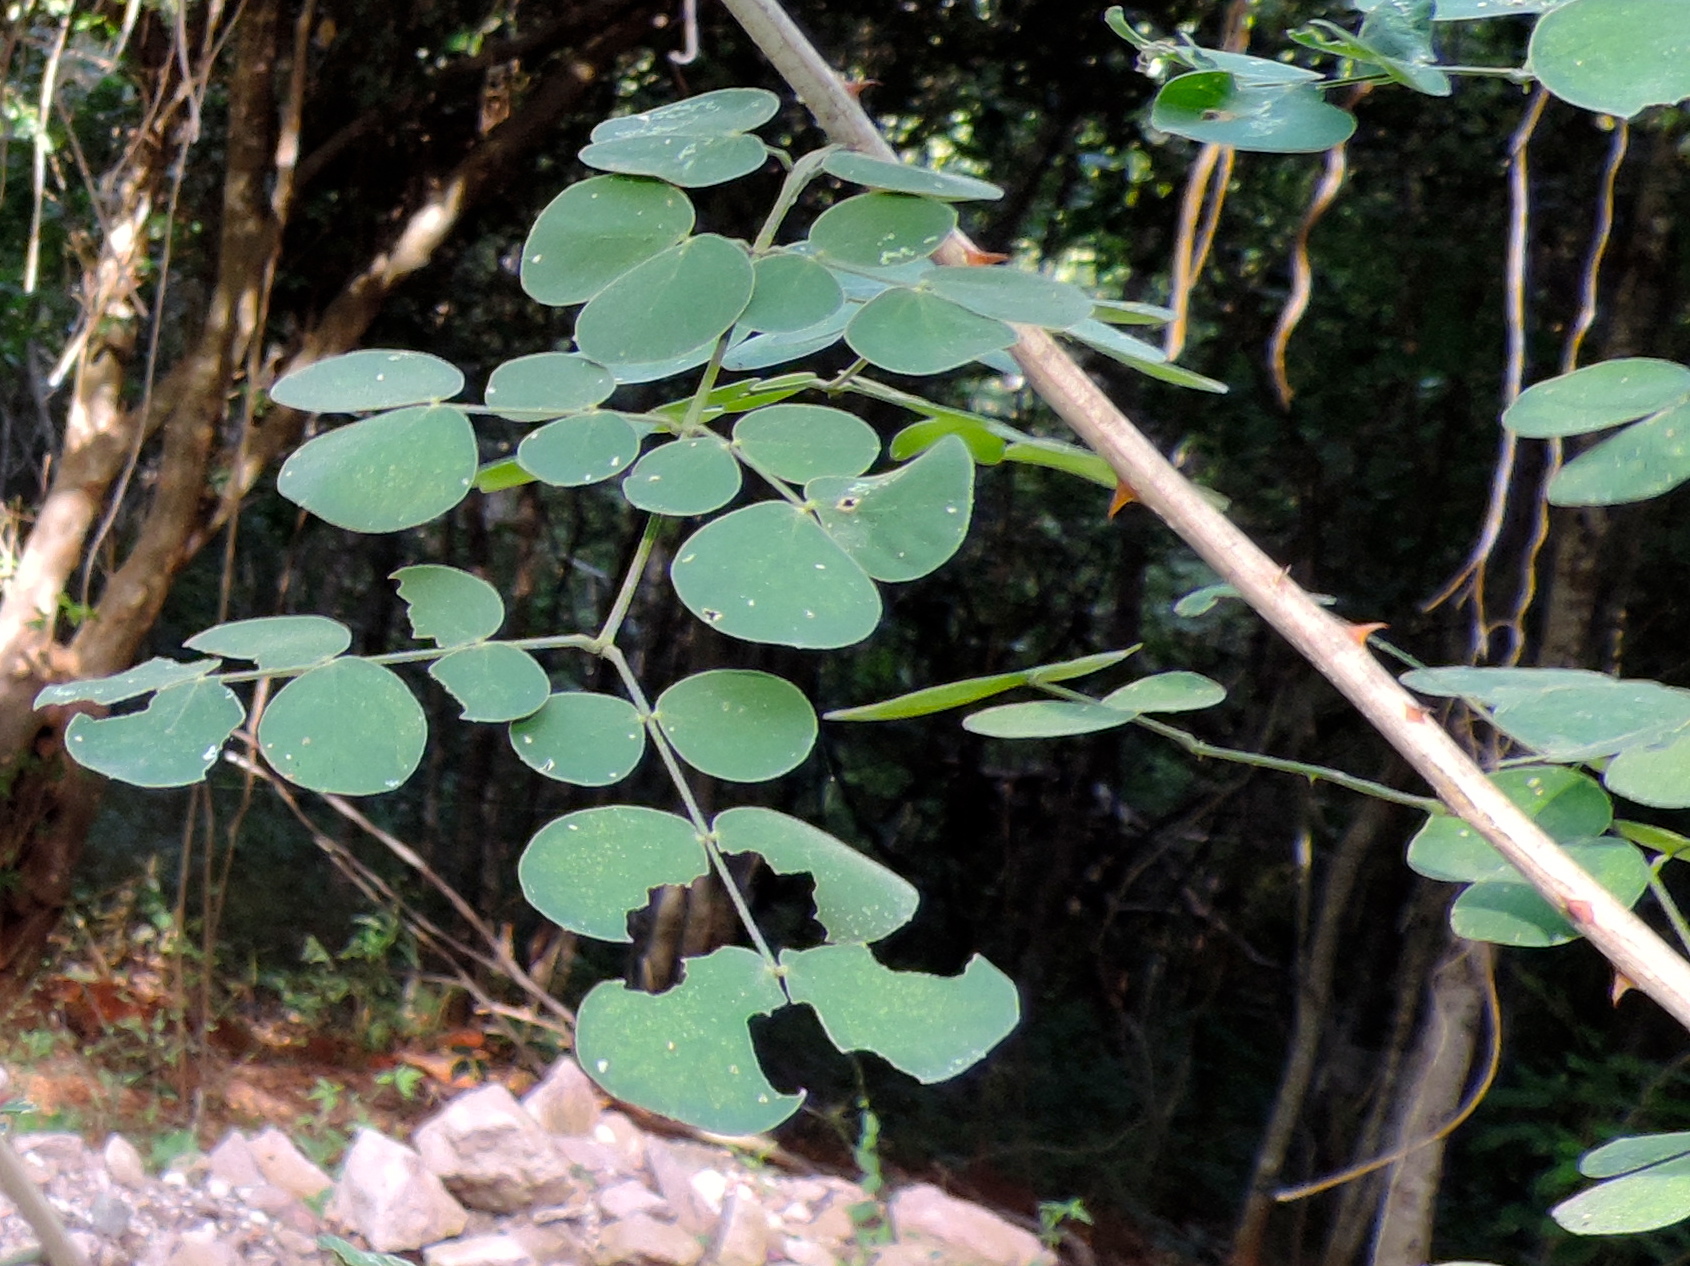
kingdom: Plantae
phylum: Tracheophyta
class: Magnoliopsida
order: Fabales
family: Fabaceae
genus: Mimosa
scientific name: Mimosa spirocarpa
